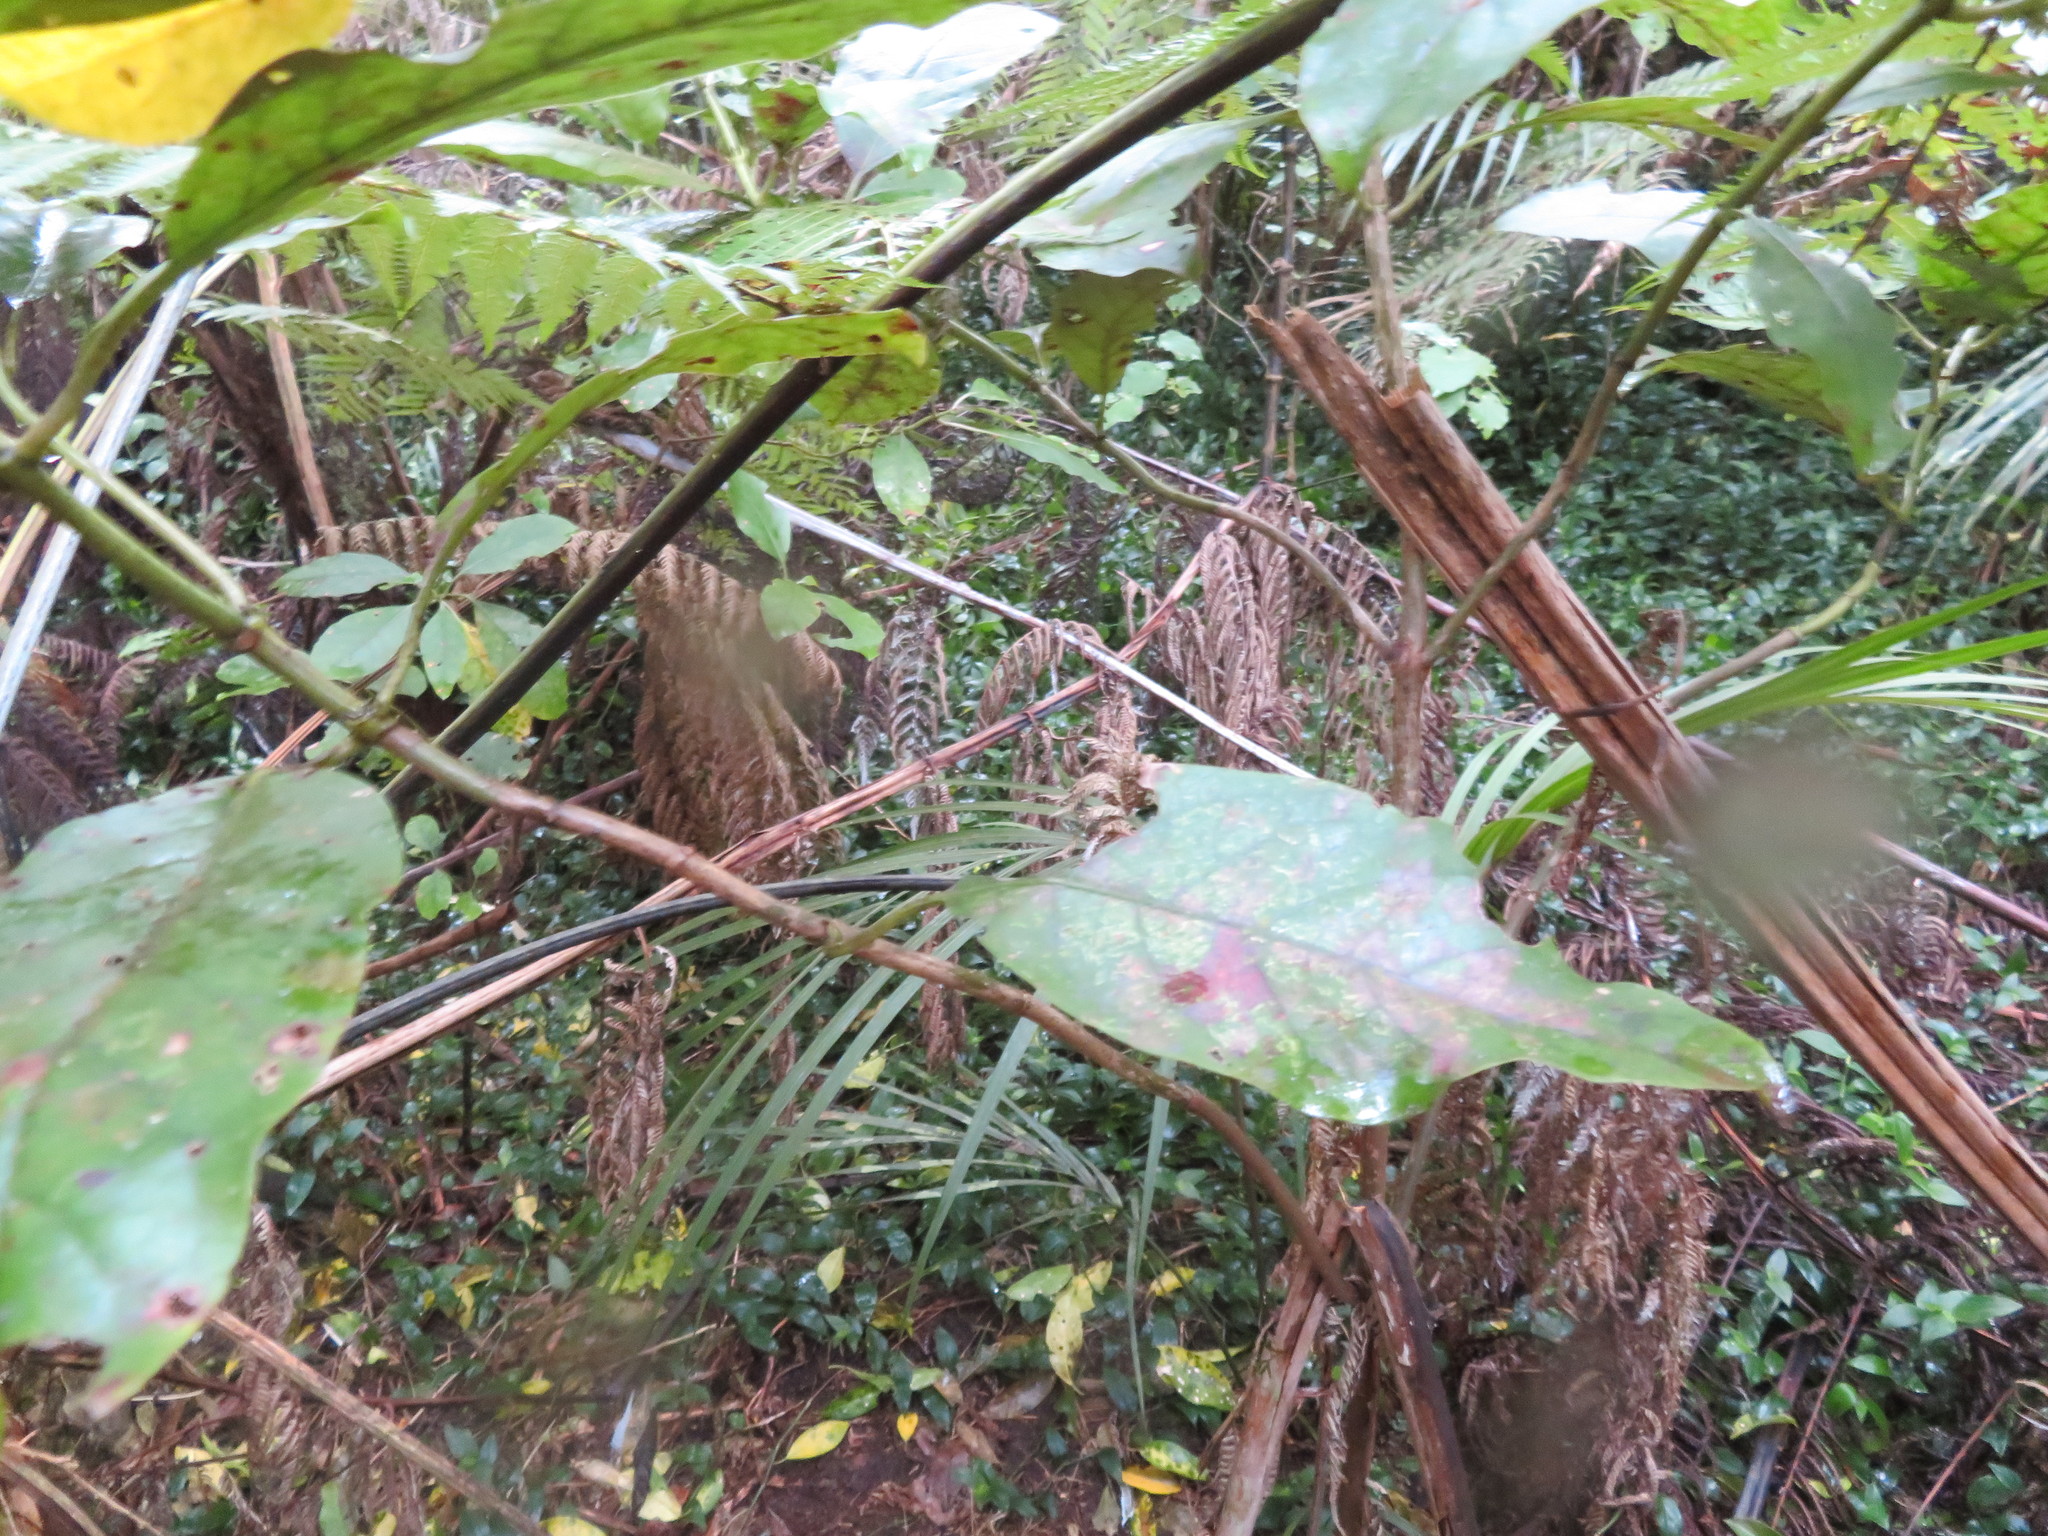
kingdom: Plantae
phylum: Tracheophyta
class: Liliopsida
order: Commelinales
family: Commelinaceae
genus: Tradescantia
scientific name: Tradescantia fluminensis
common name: Wandering-jew
